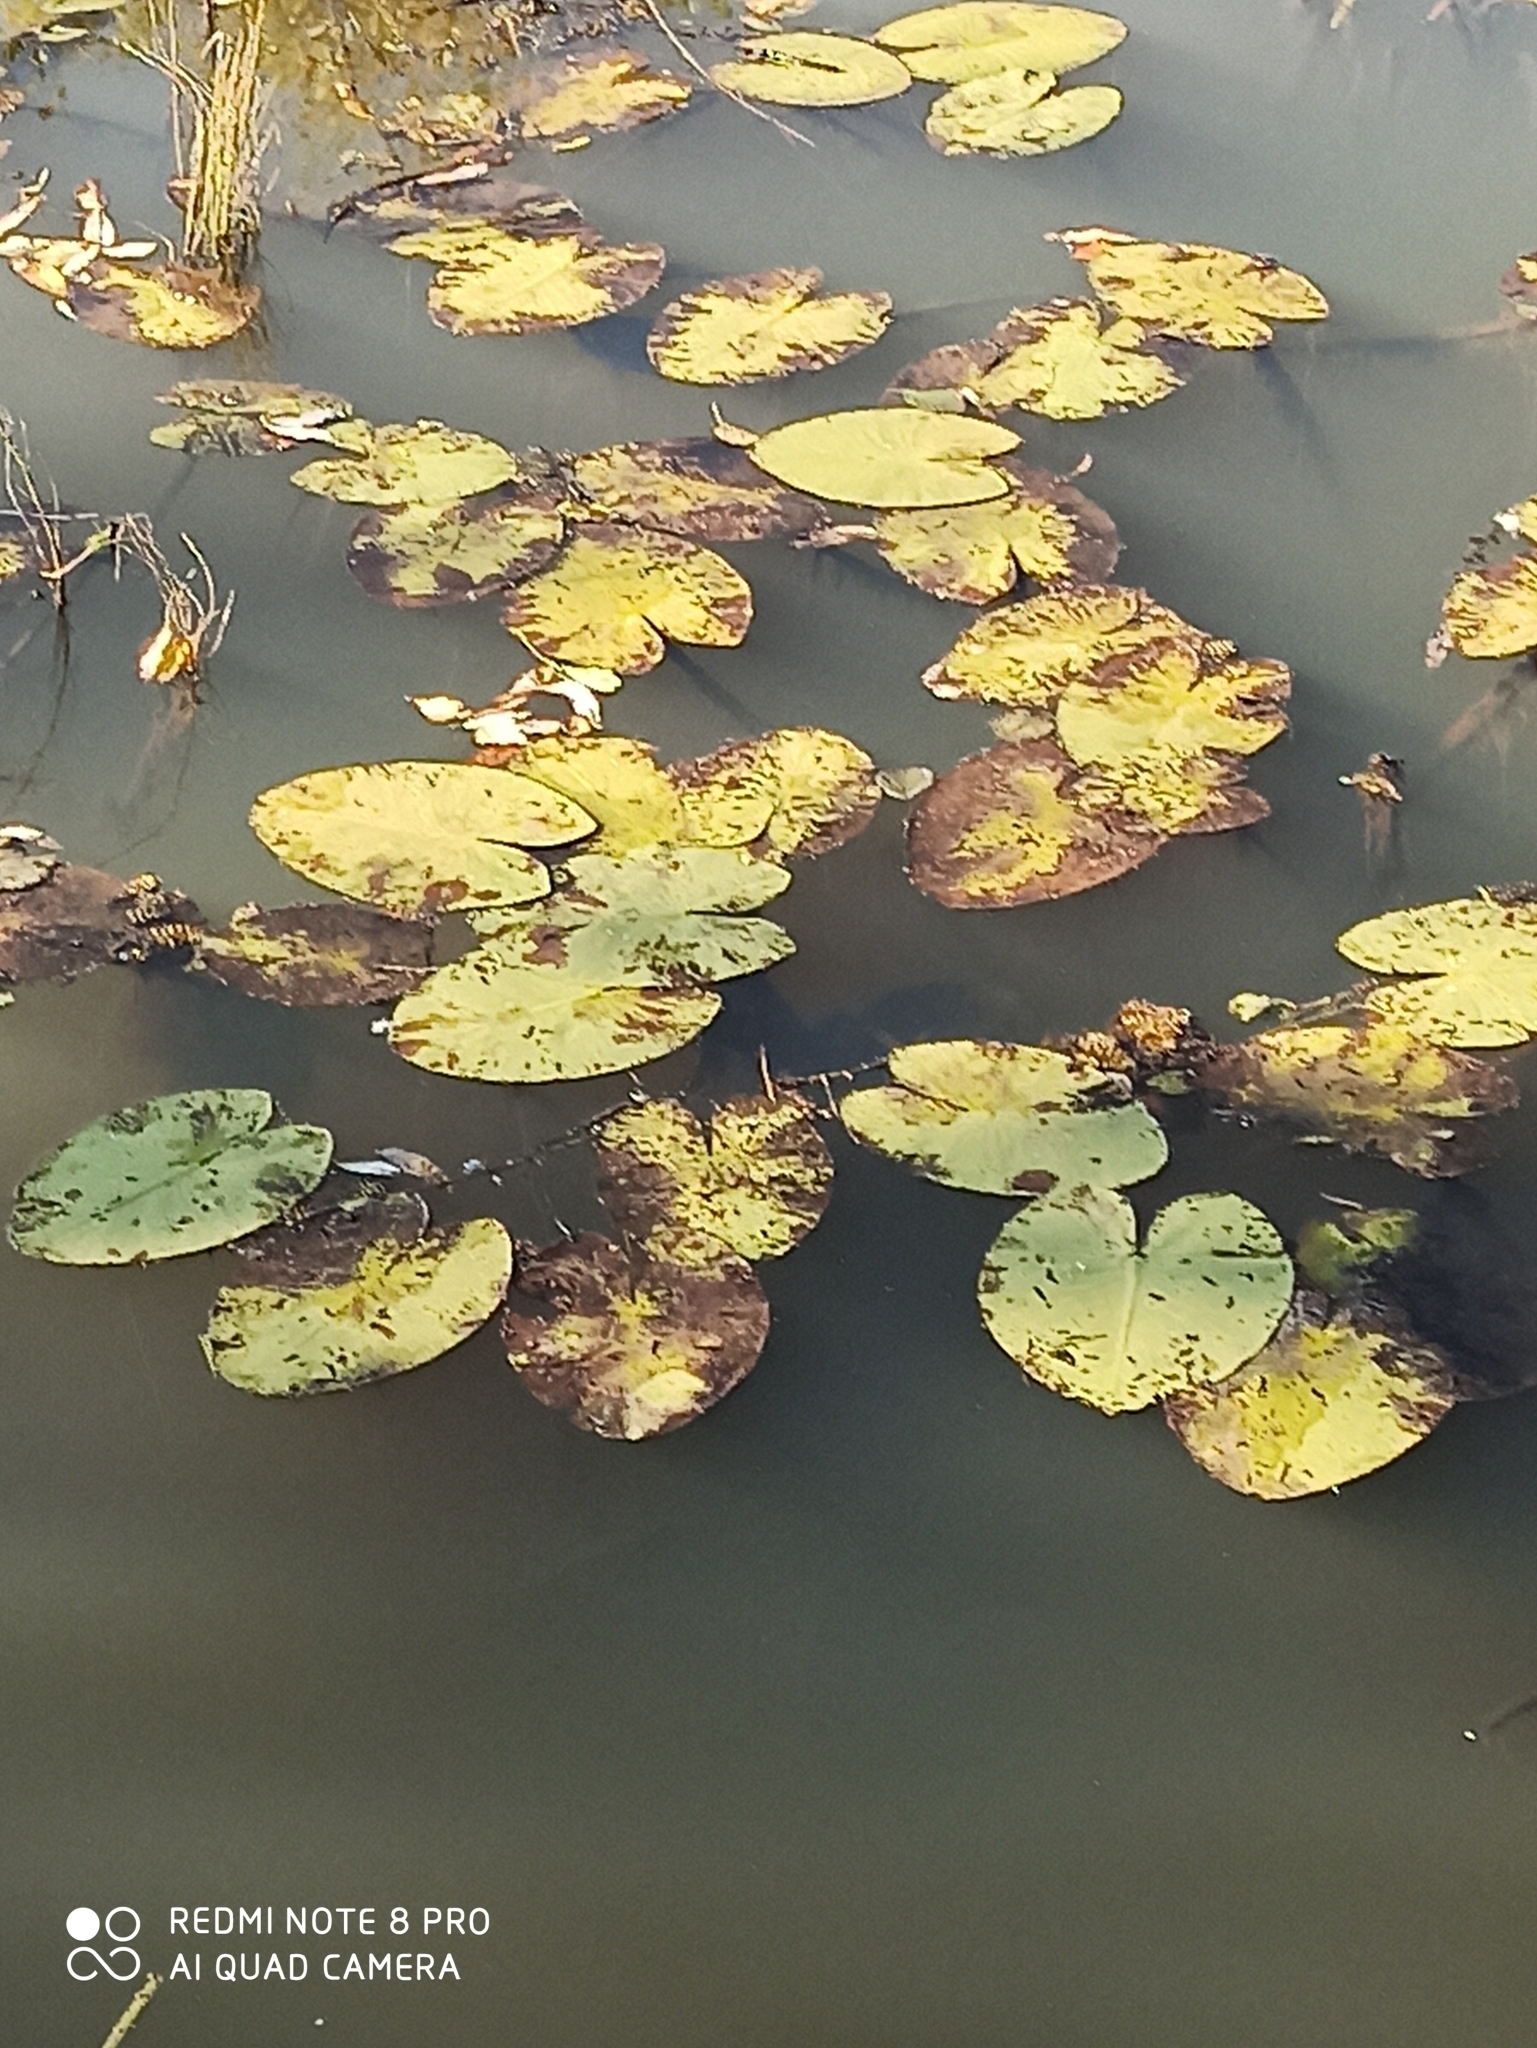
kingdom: Plantae
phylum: Tracheophyta
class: Magnoliopsida
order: Nymphaeales
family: Nymphaeaceae
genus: Nuphar
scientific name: Nuphar lutea
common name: Yellow water-lily
